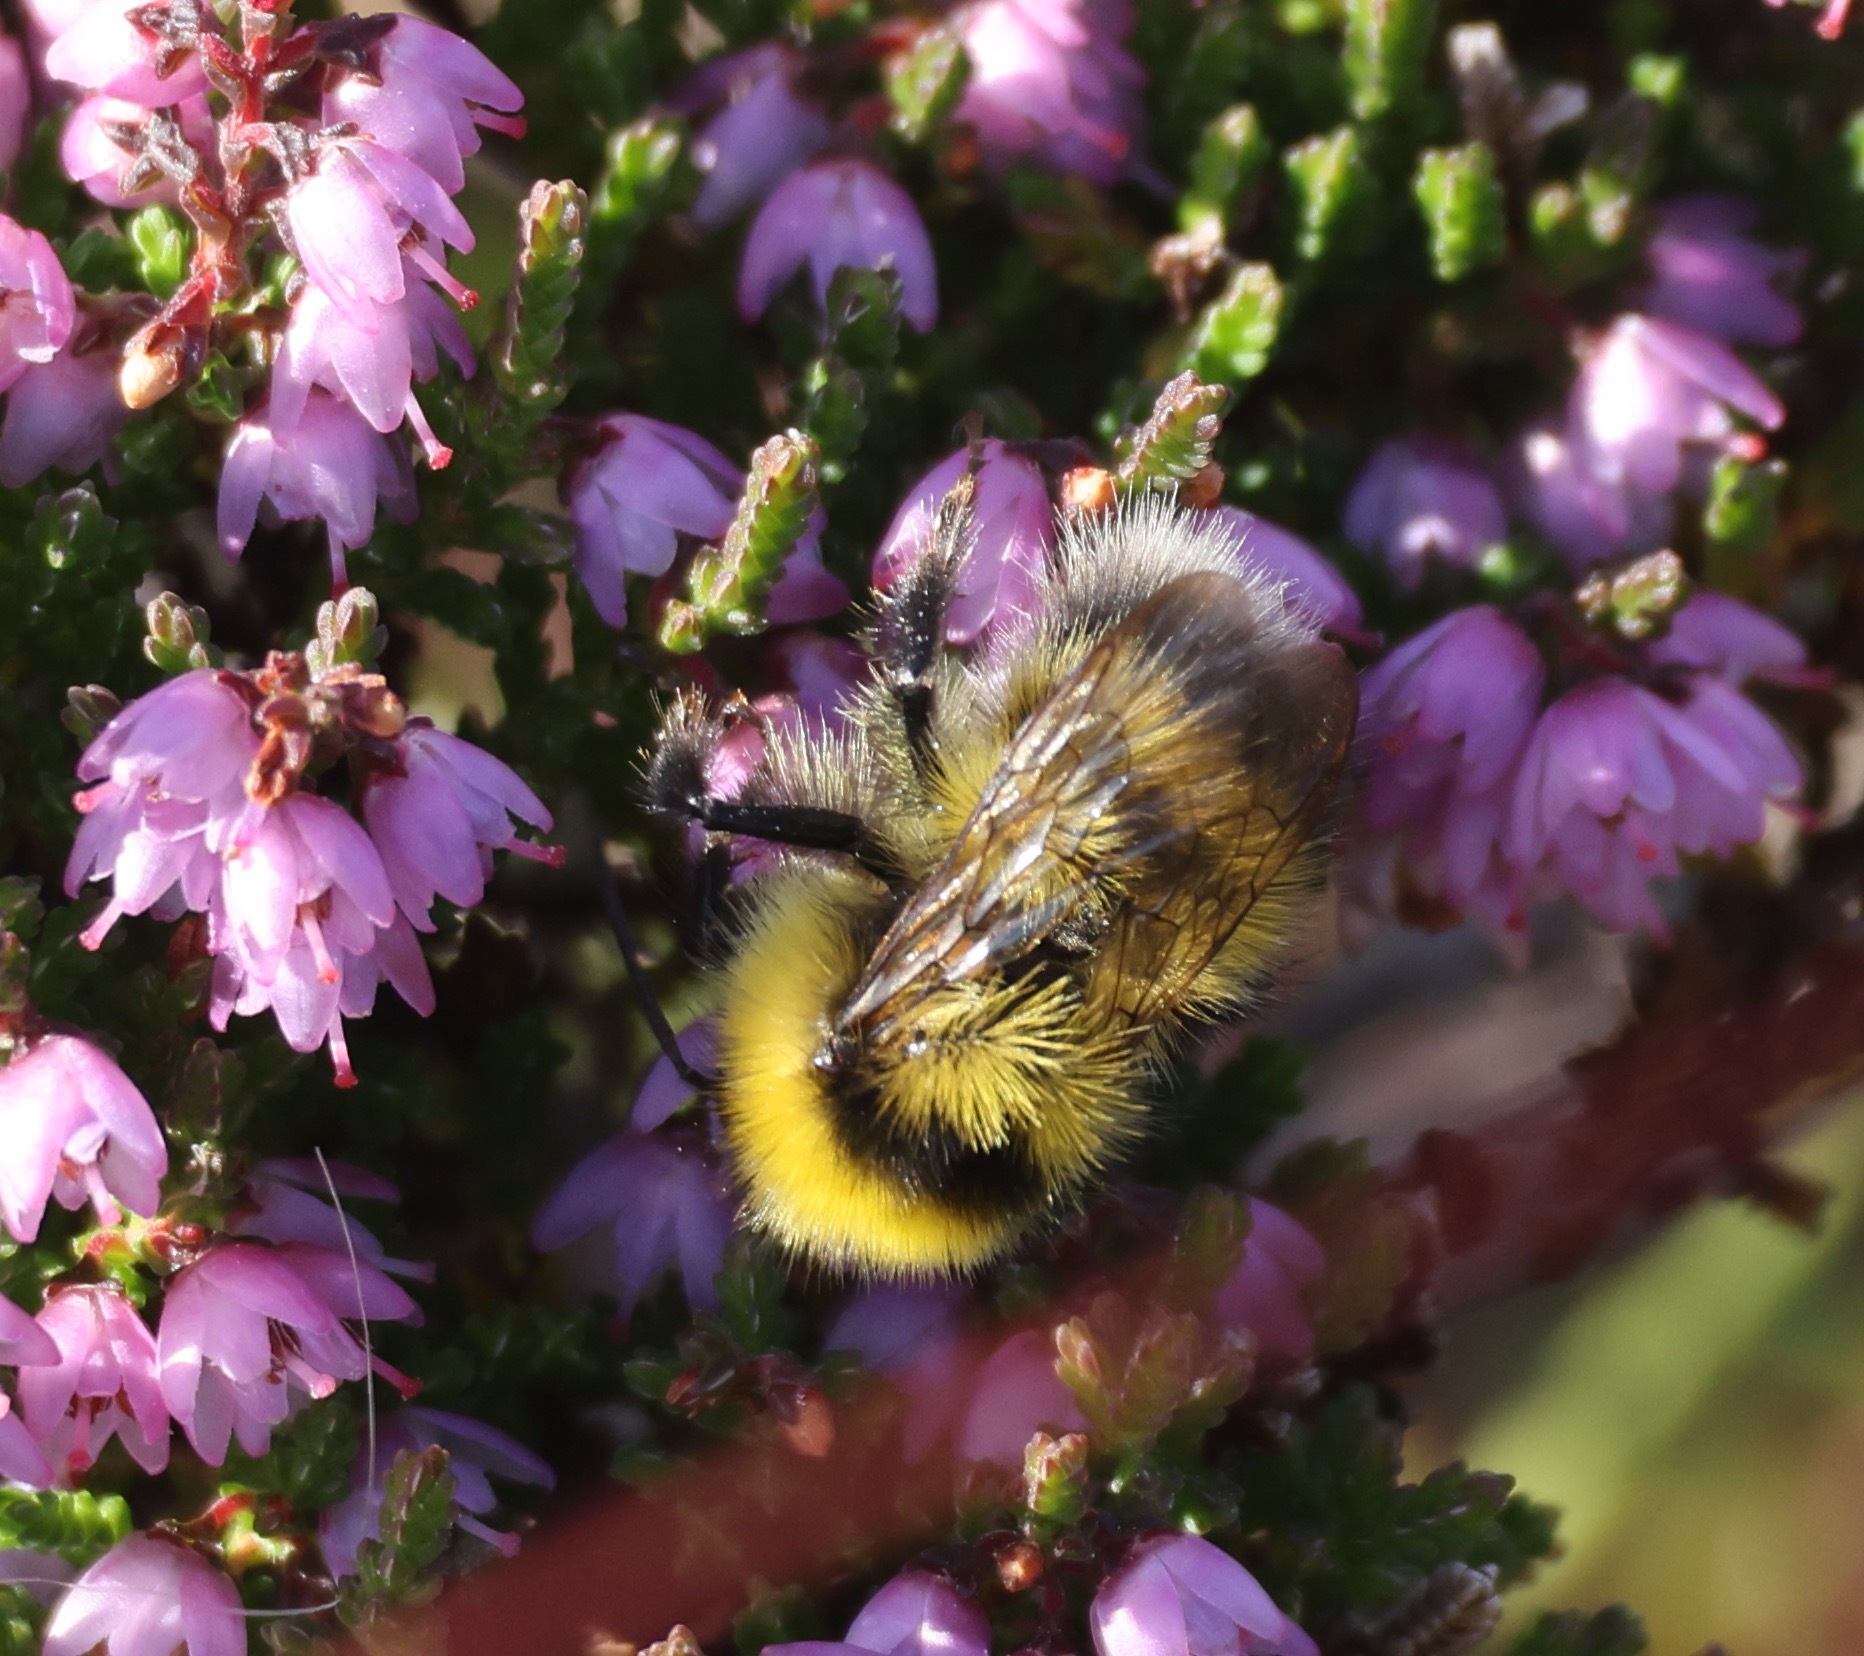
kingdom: Animalia
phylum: Arthropoda
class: Insecta
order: Hymenoptera
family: Apidae
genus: Bombus
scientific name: Bombus jonellus
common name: Heath humble-bee
